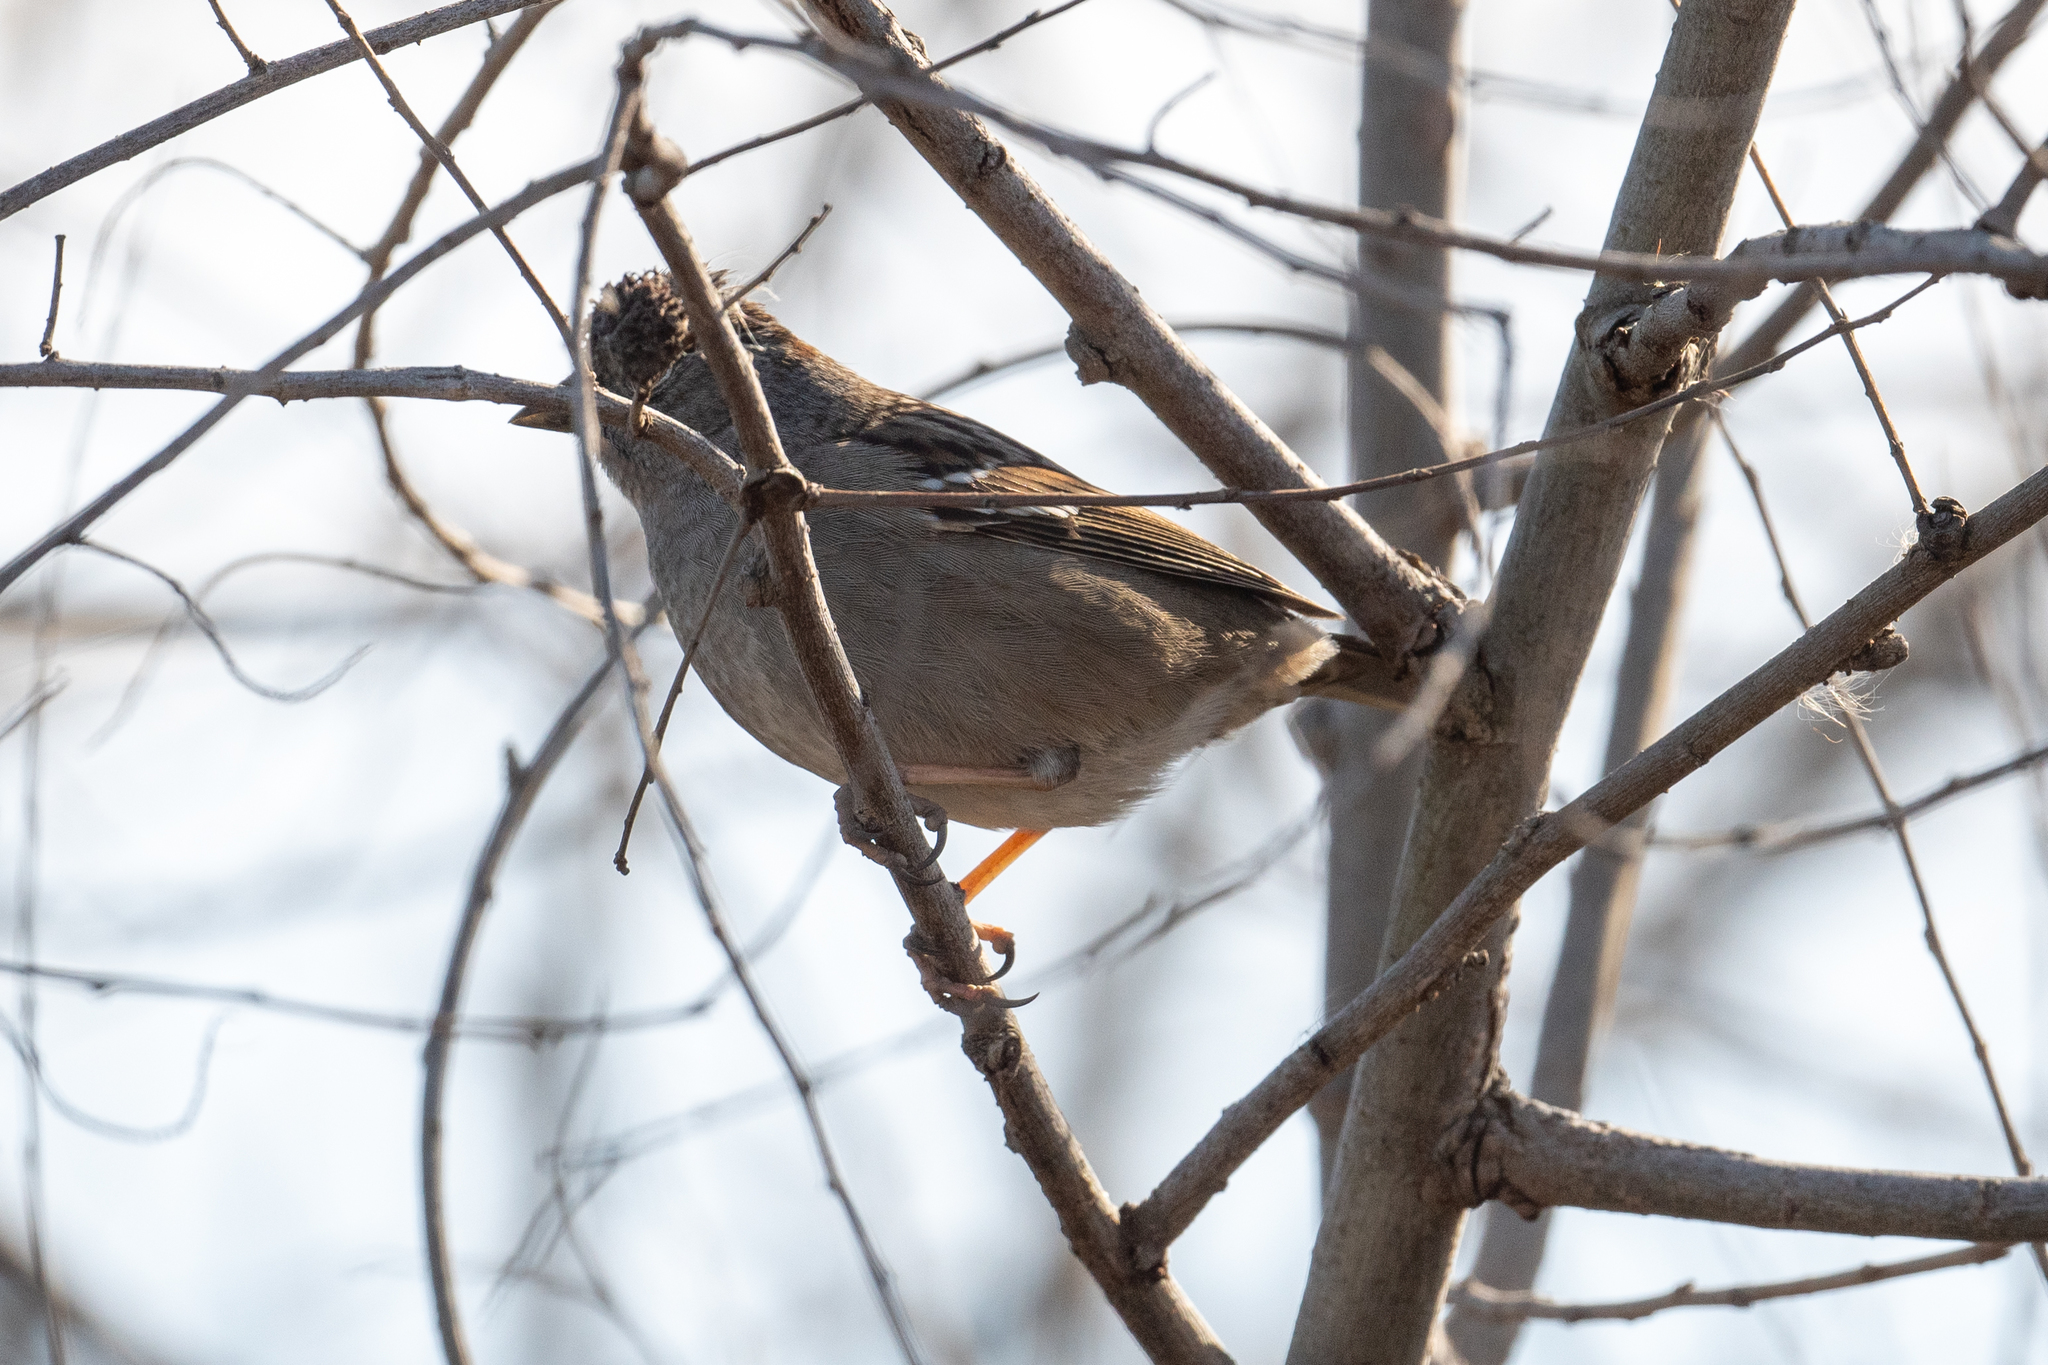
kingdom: Animalia
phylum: Chordata
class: Aves
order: Passeriformes
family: Passerellidae
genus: Zonotrichia
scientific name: Zonotrichia atricapilla
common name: Golden-crowned sparrow
